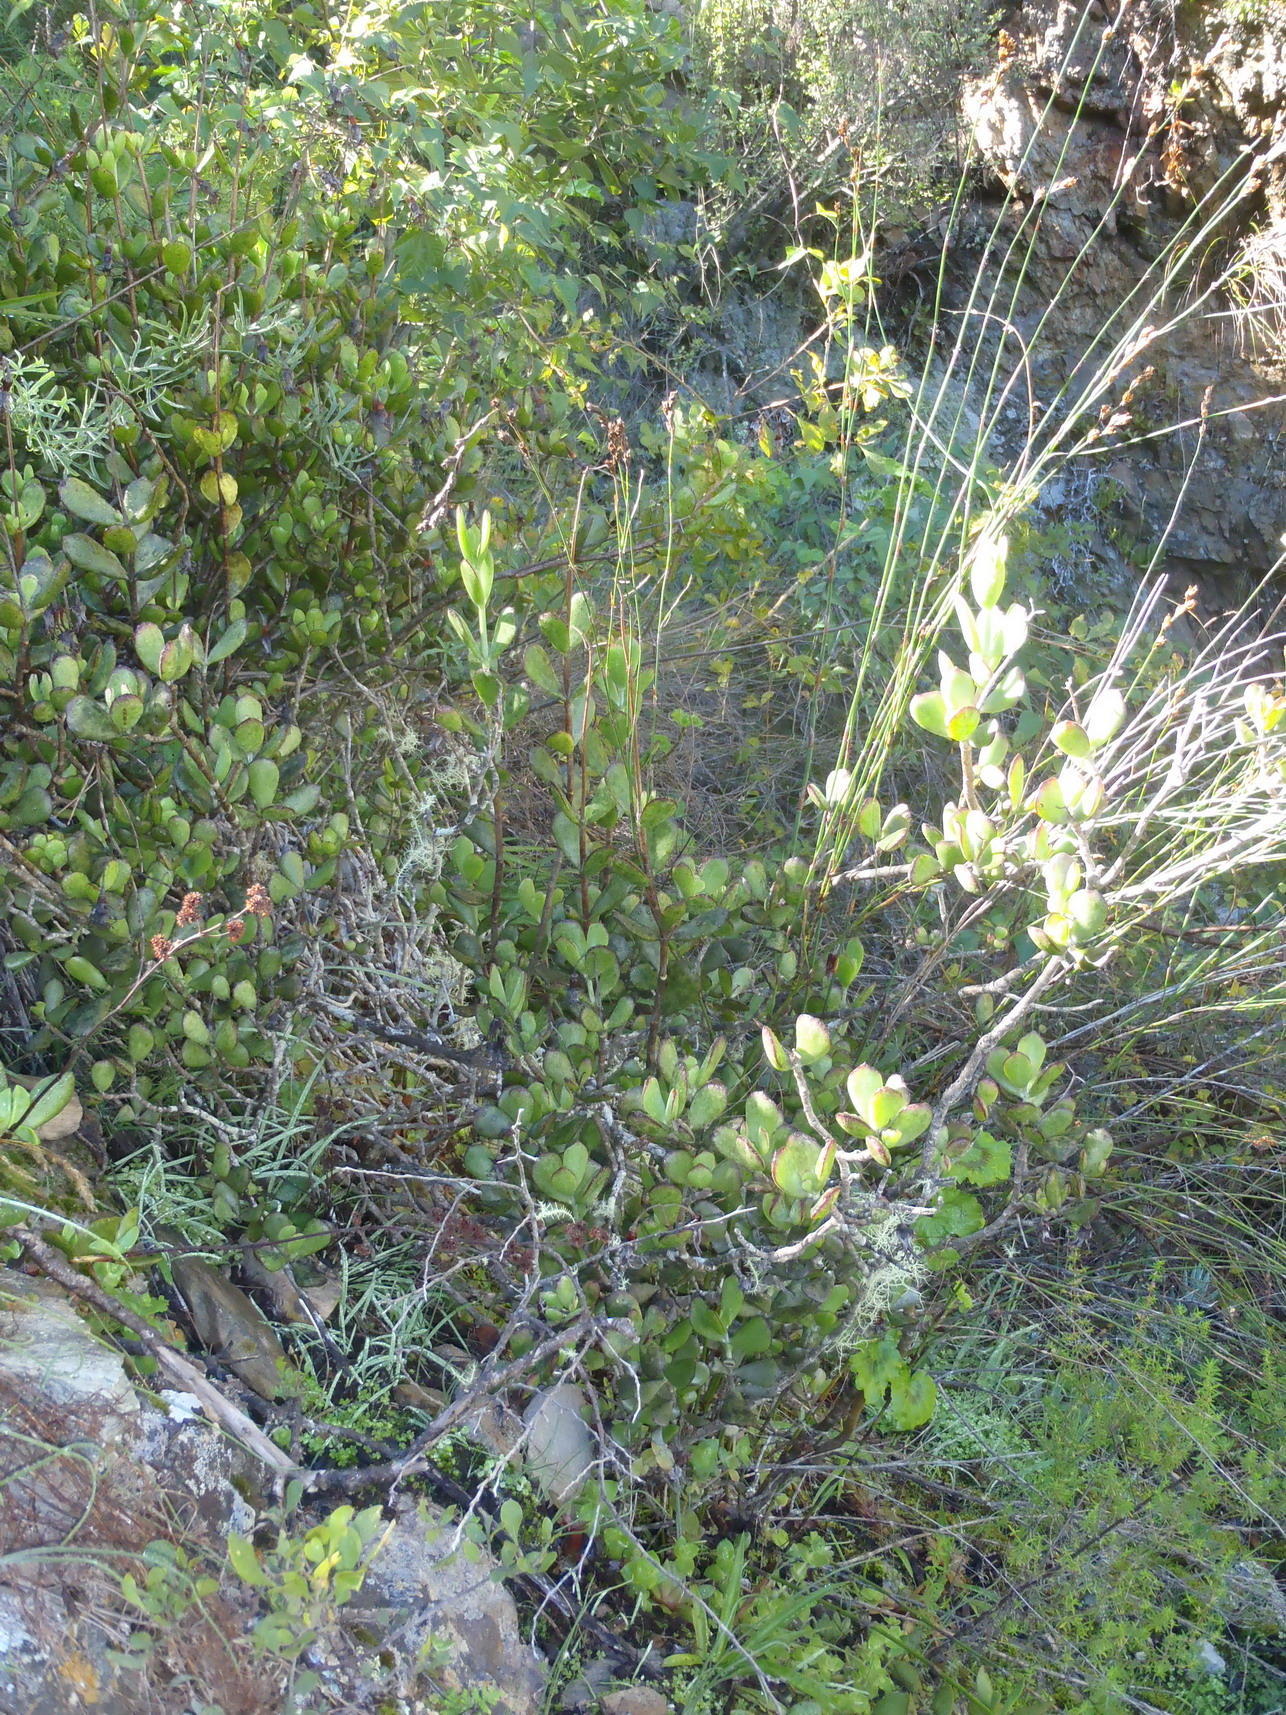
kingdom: Plantae
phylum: Tracheophyta
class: Magnoliopsida
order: Saxifragales
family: Crassulaceae
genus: Cotyledon
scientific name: Cotyledon woodii
